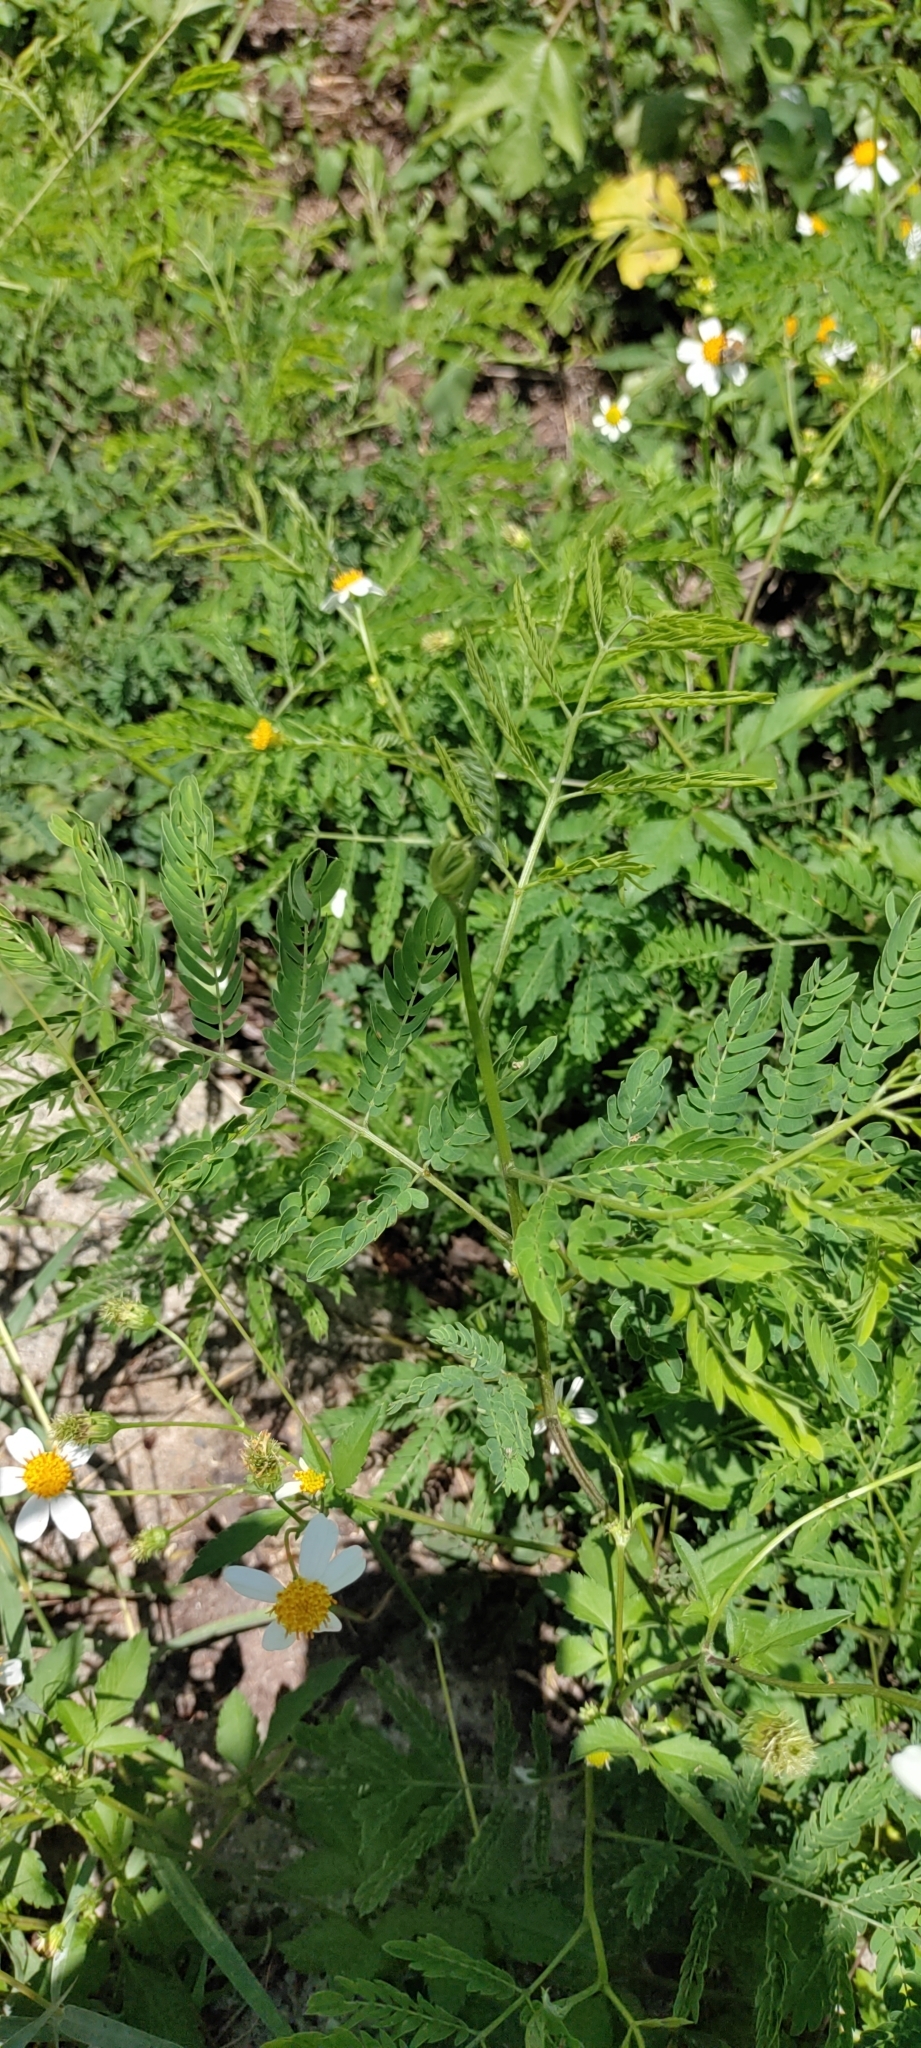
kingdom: Plantae
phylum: Tracheophyta
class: Magnoliopsida
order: Fabales
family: Fabaceae
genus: Leucaena
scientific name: Leucaena leucocephala
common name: White leadtree
